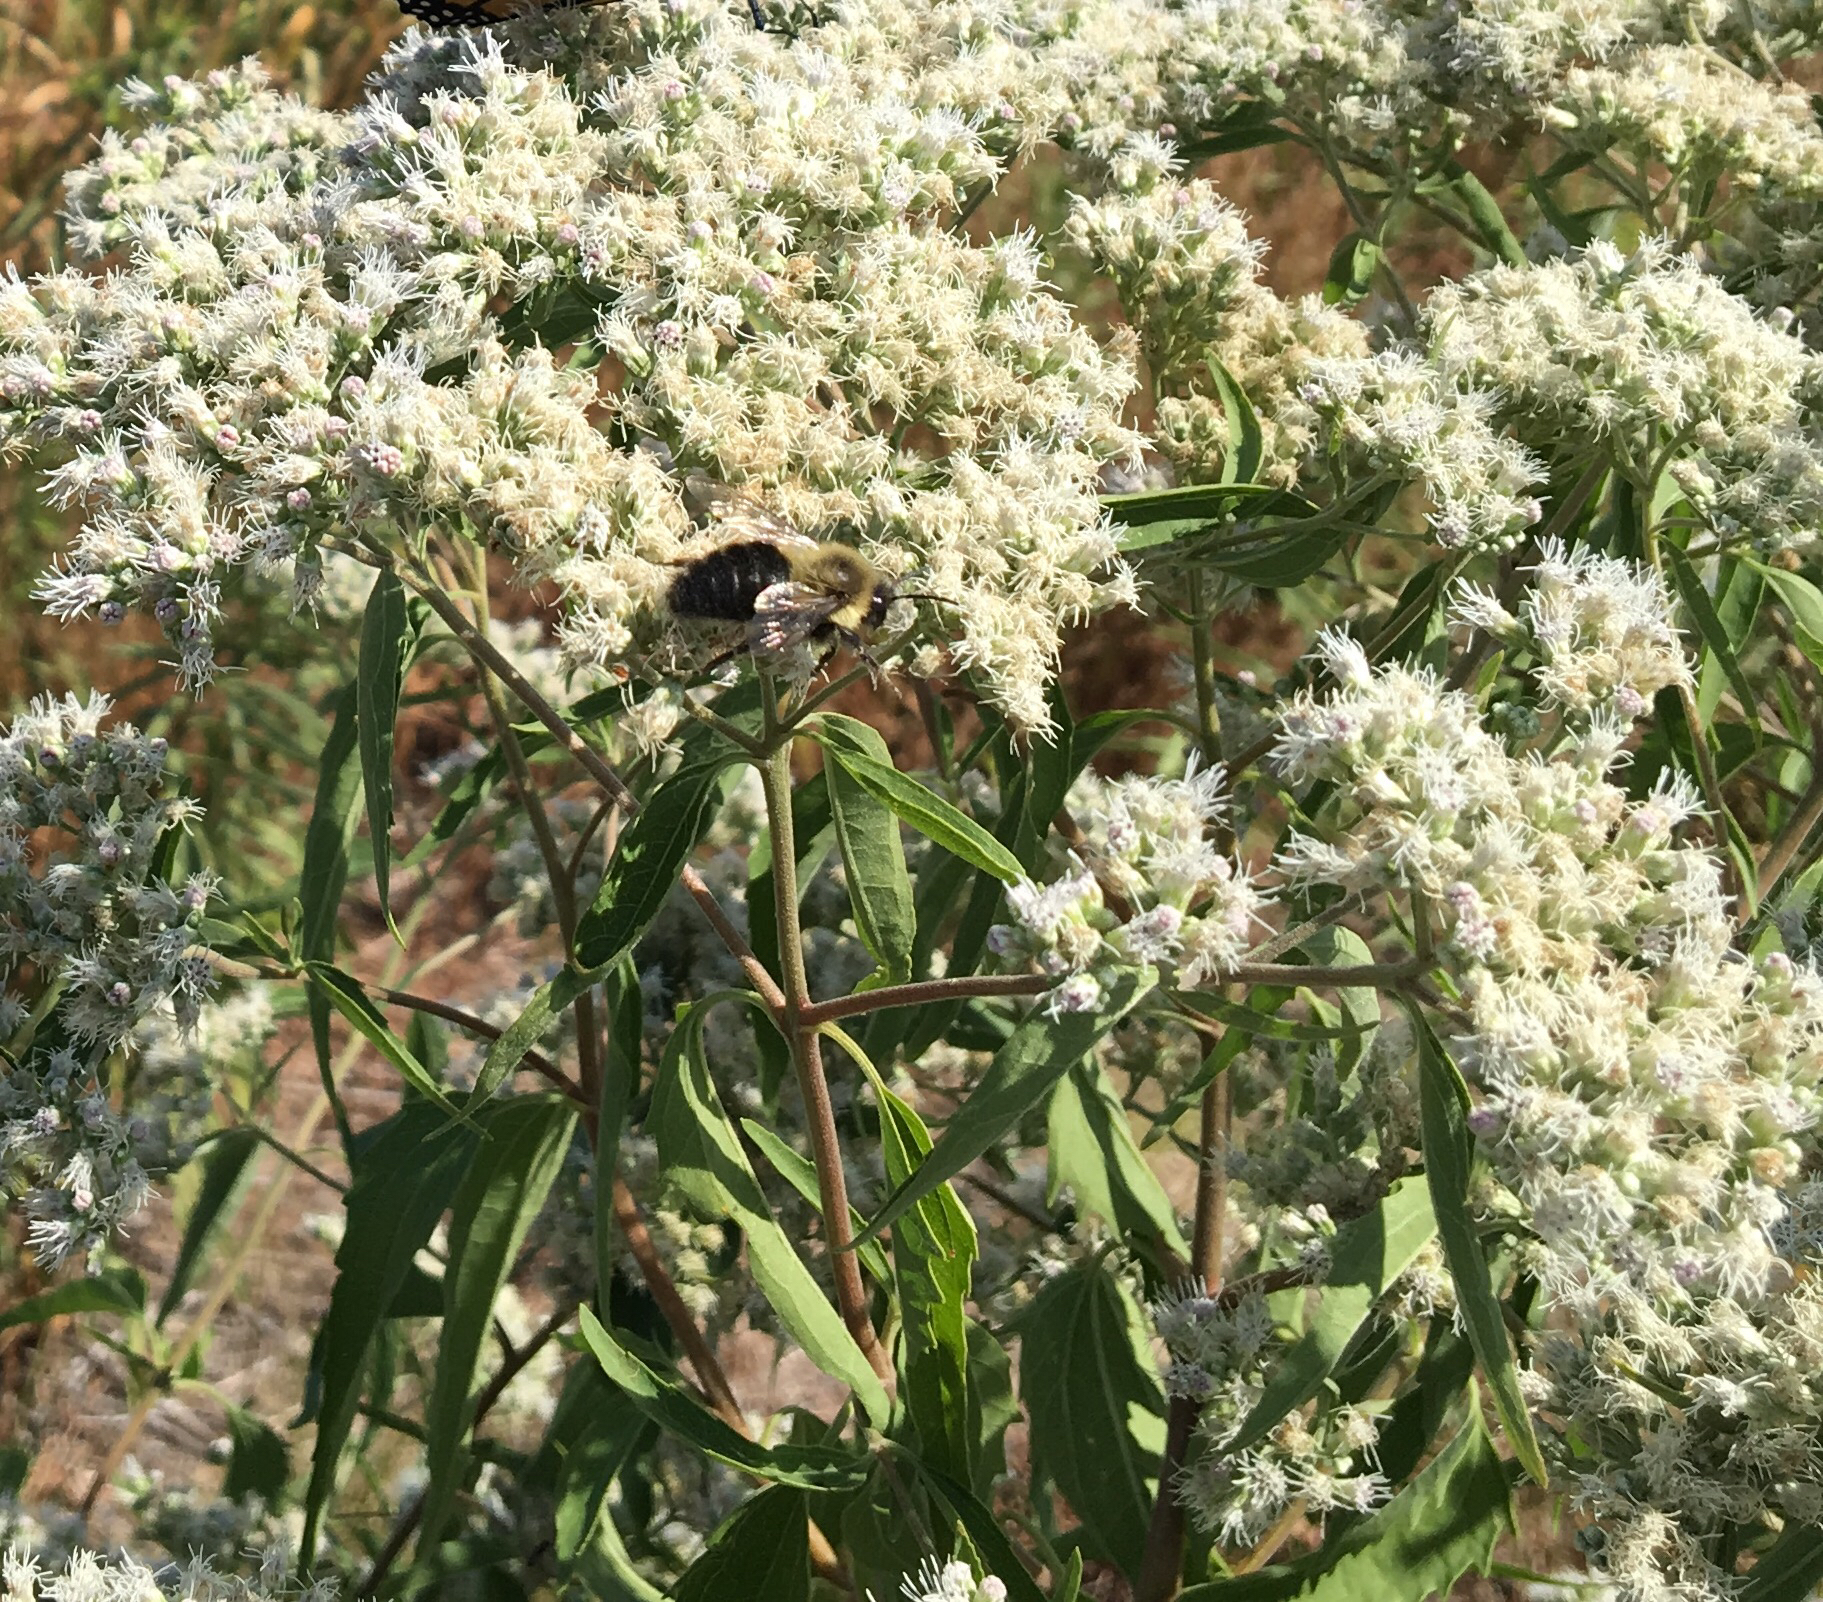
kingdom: Plantae
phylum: Tracheophyta
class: Magnoliopsida
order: Asterales
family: Asteraceae
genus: Eupatorium
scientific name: Eupatorium serotinum
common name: Late boneset
